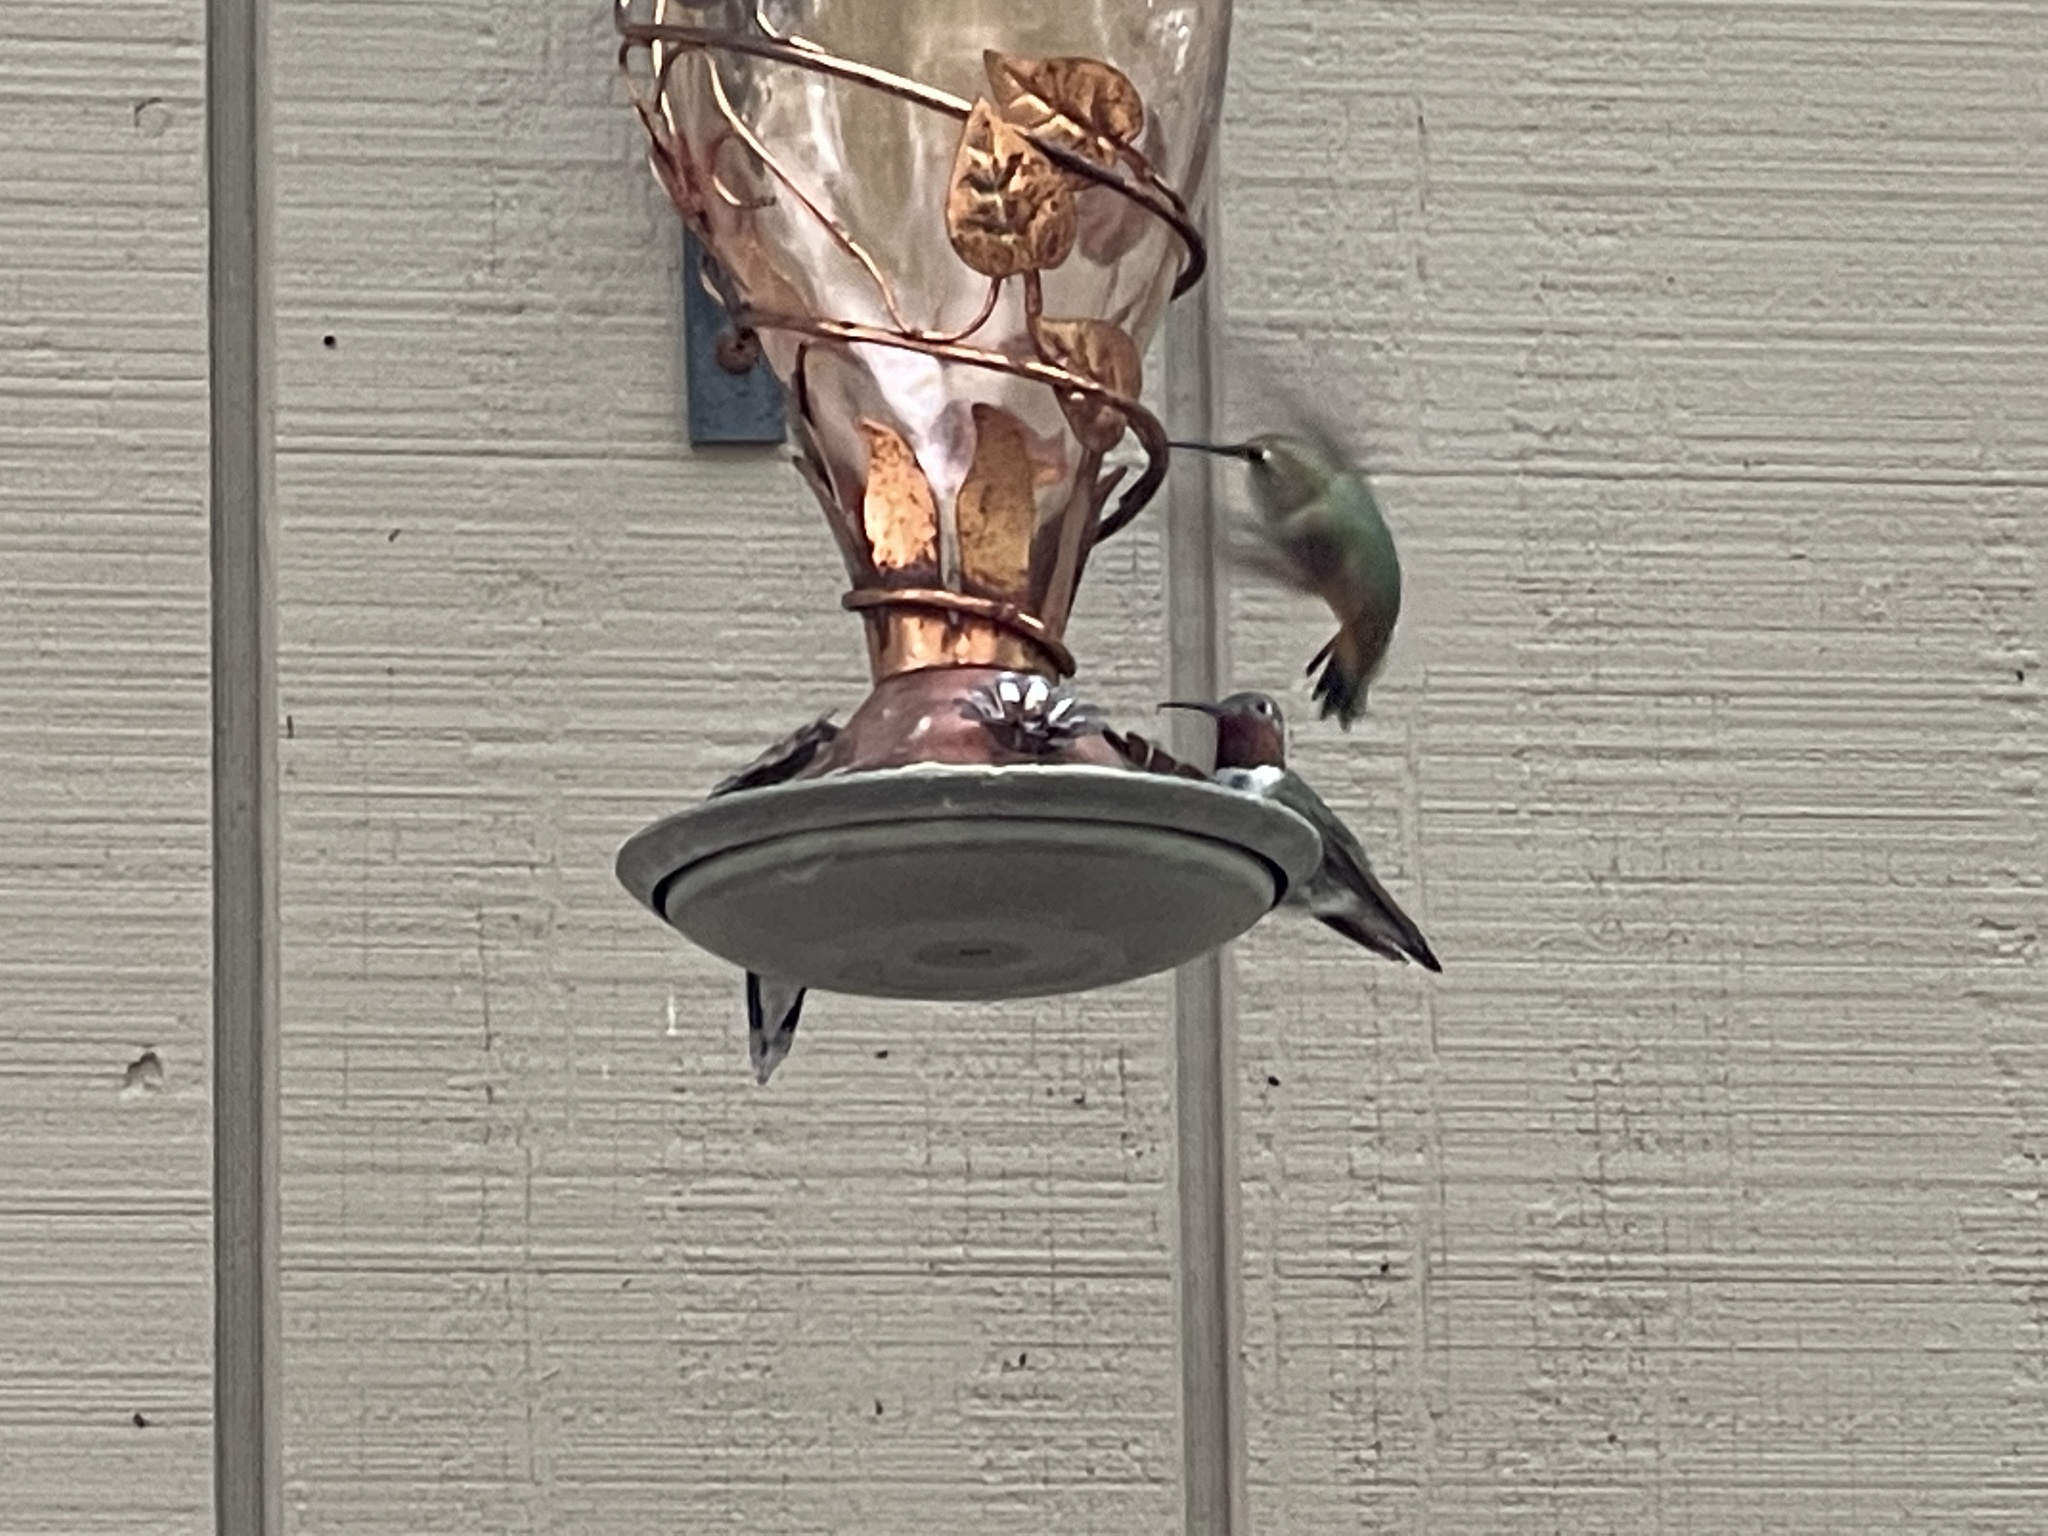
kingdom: Animalia
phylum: Chordata
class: Aves
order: Apodiformes
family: Trochilidae
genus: Selasphorus
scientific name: Selasphorus platycercus
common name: Broad-tailed hummingbird
